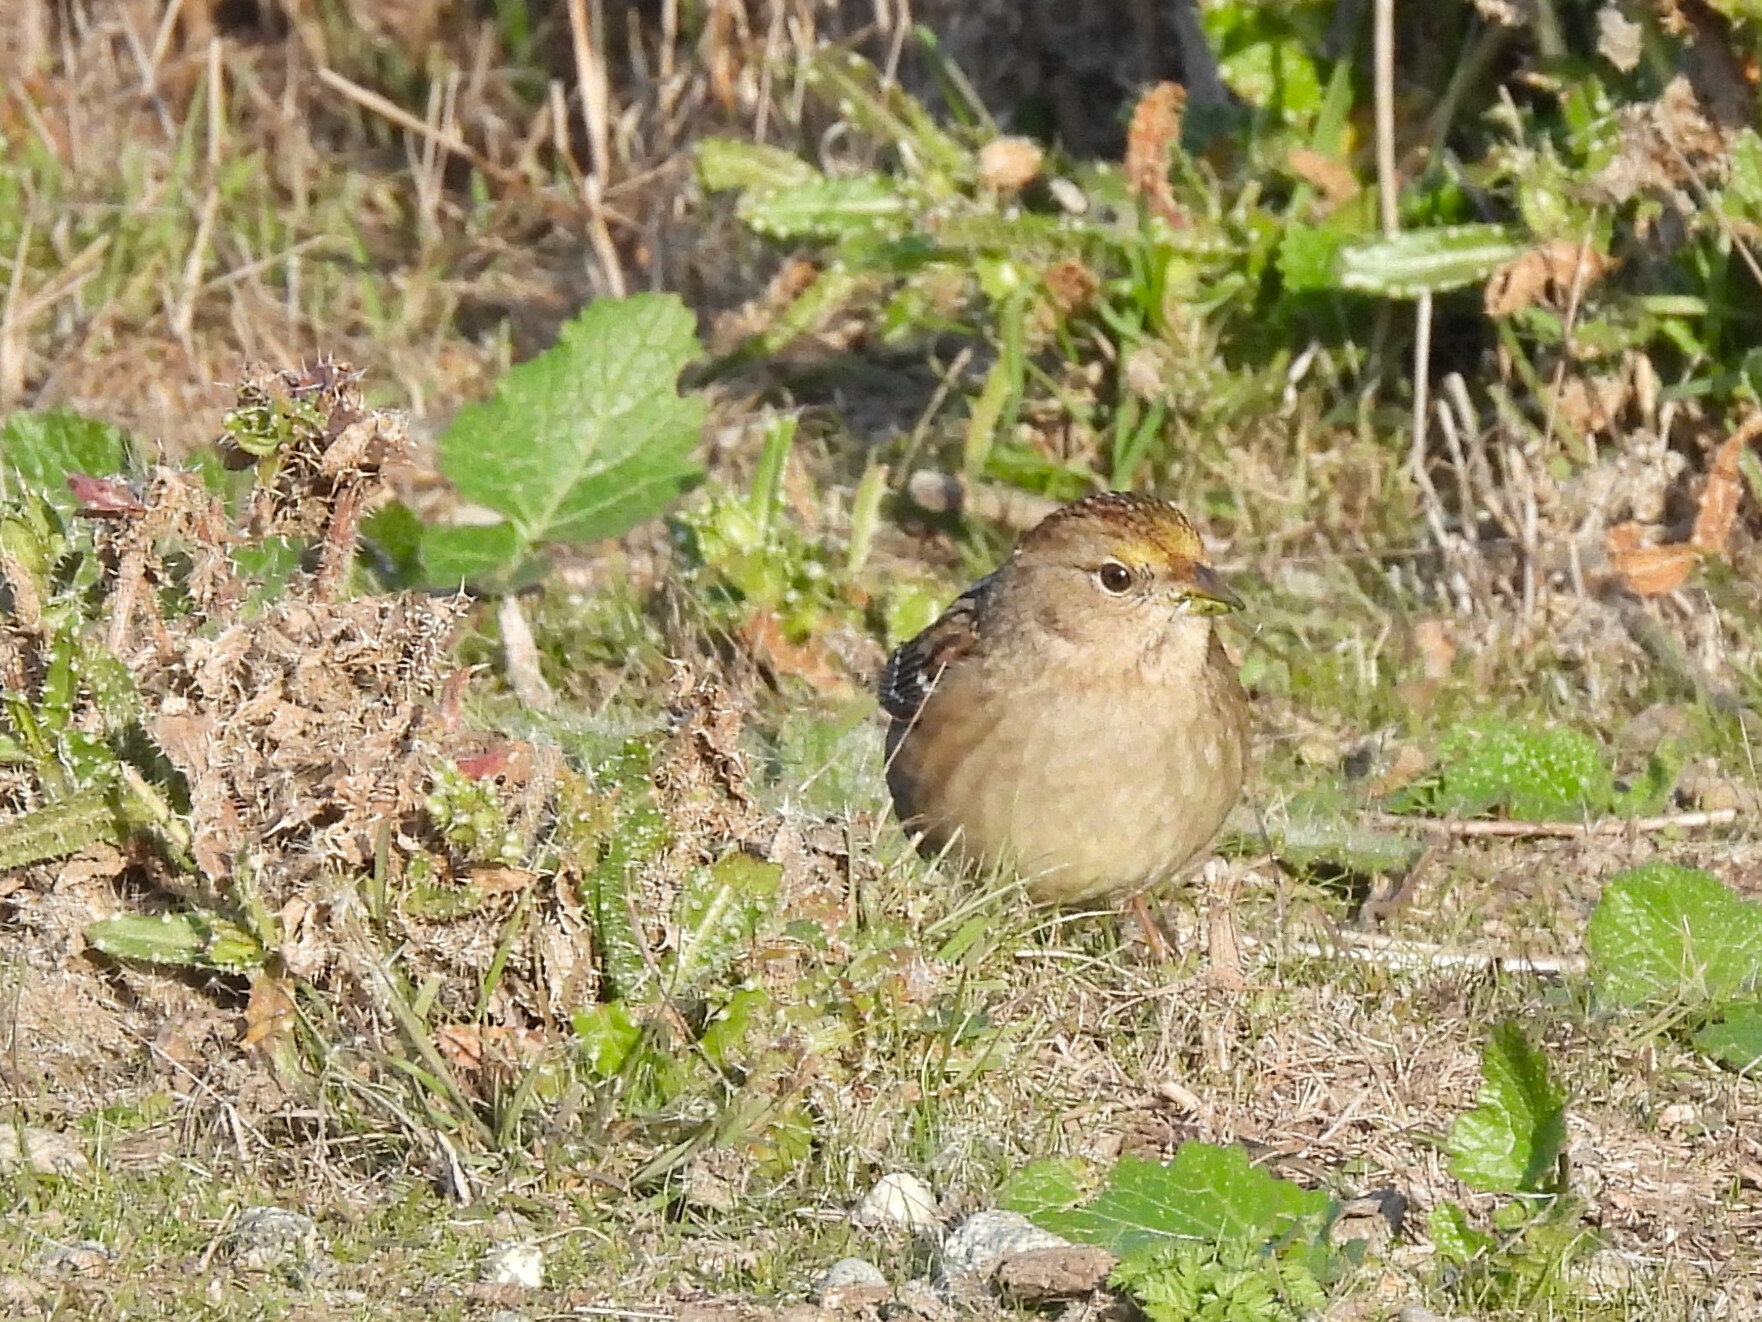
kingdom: Animalia
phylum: Chordata
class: Aves
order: Passeriformes
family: Passerellidae
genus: Zonotrichia
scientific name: Zonotrichia atricapilla
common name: Golden-crowned sparrow
